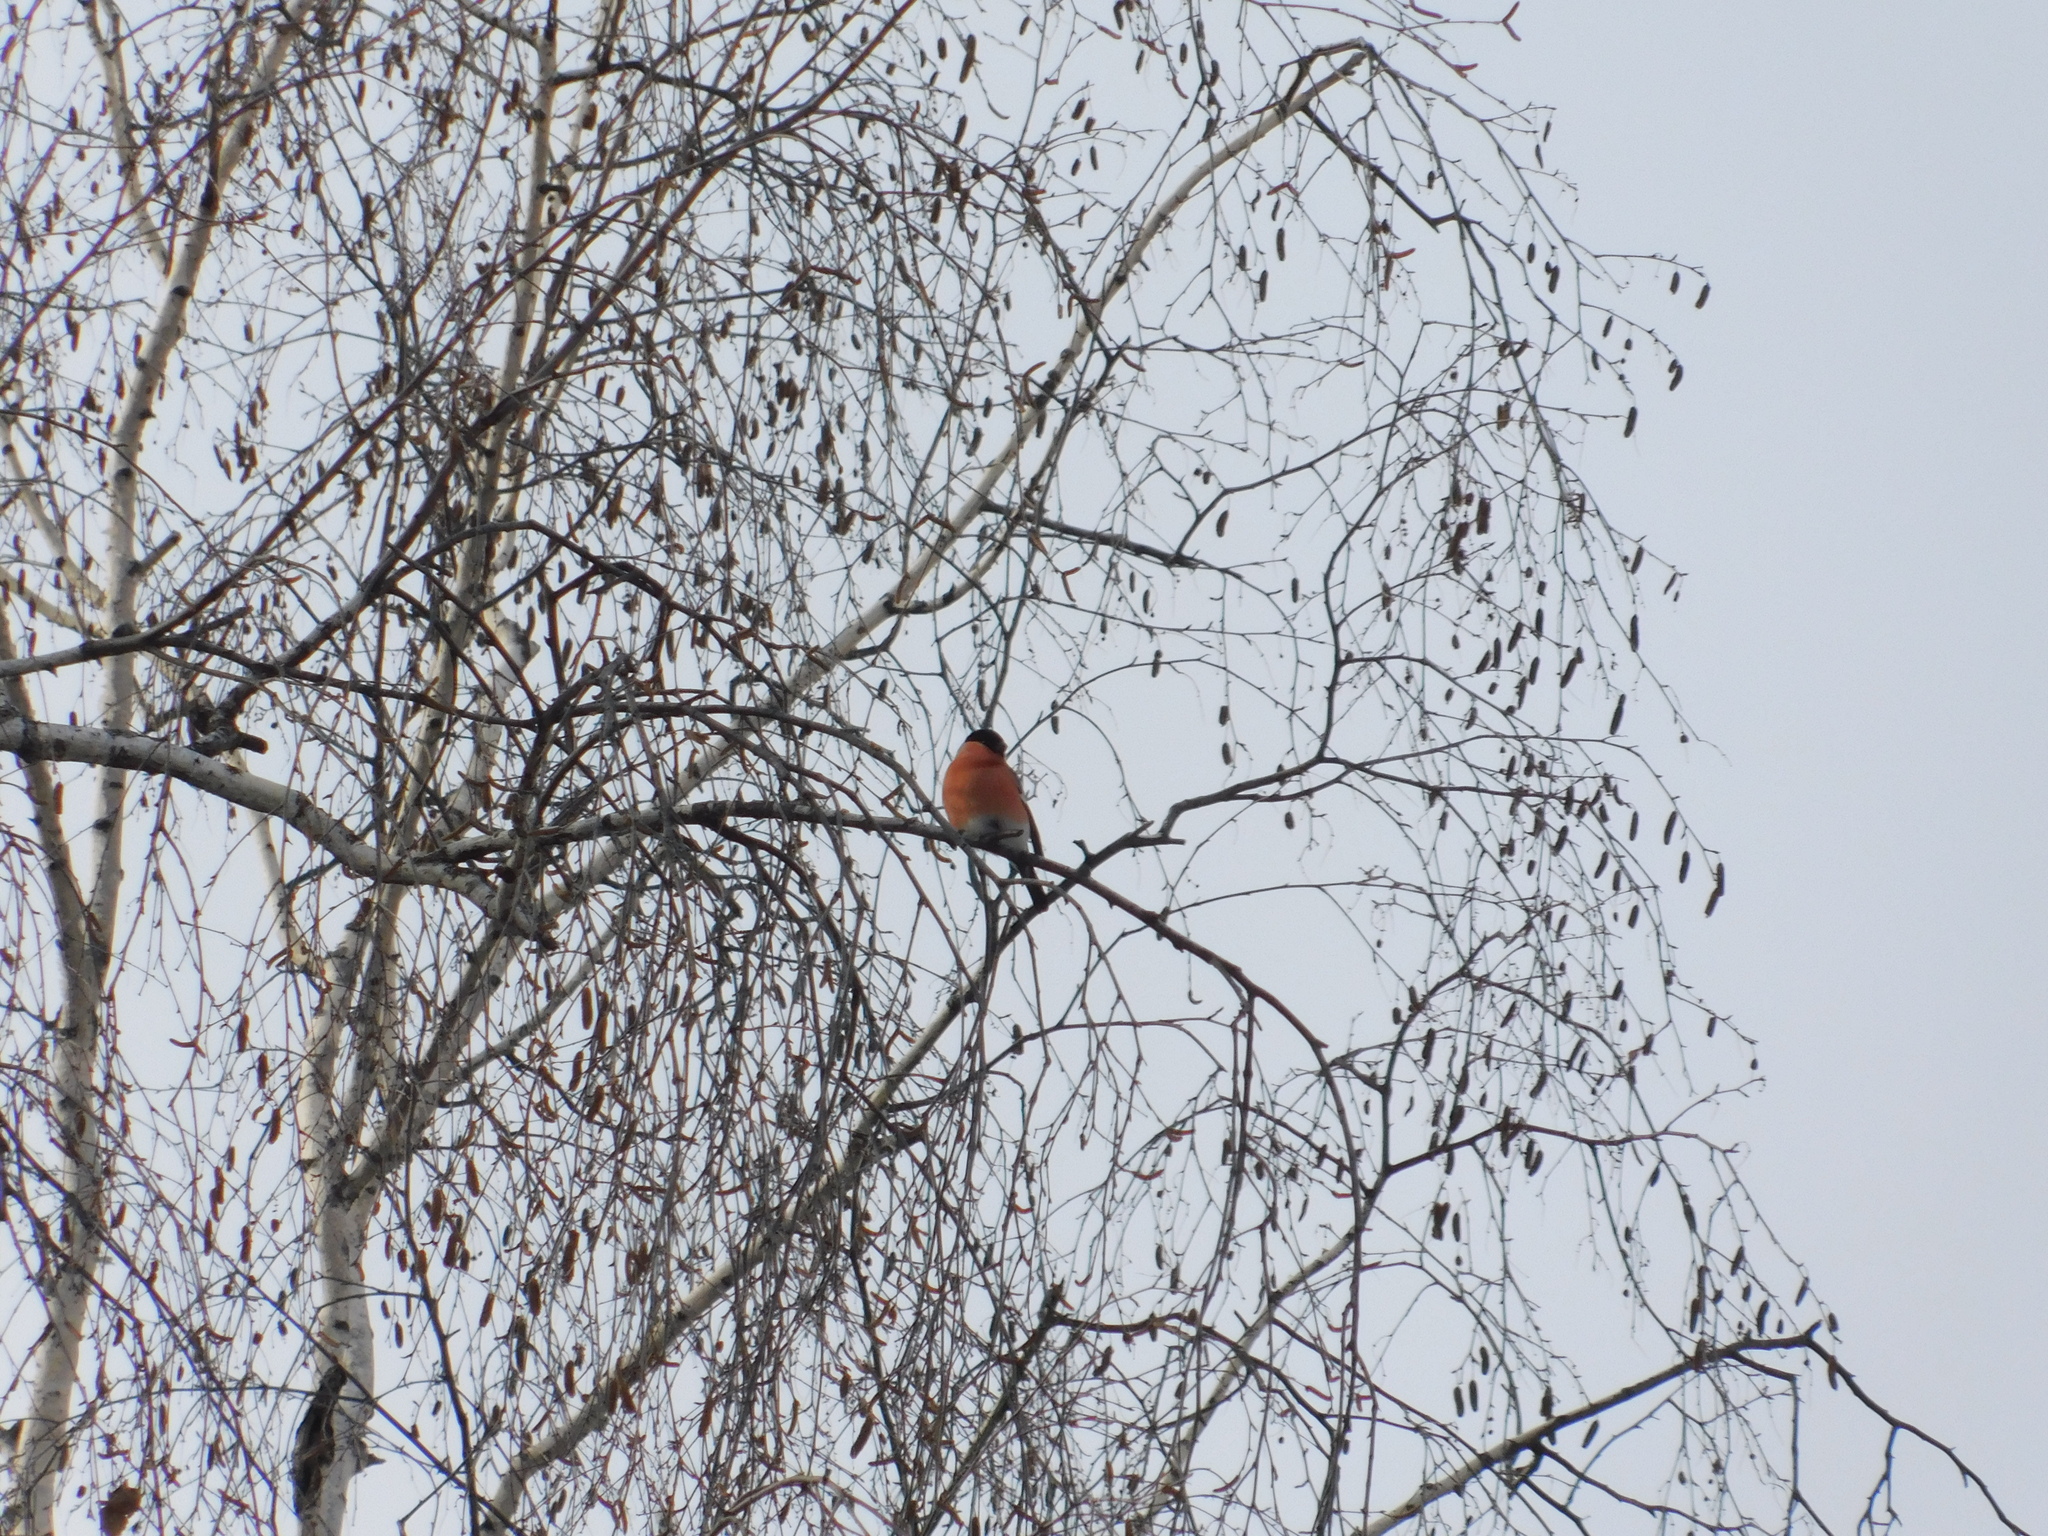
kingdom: Animalia
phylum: Chordata
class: Aves
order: Passeriformes
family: Fringillidae
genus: Pyrrhula
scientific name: Pyrrhula pyrrhula
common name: Eurasian bullfinch
